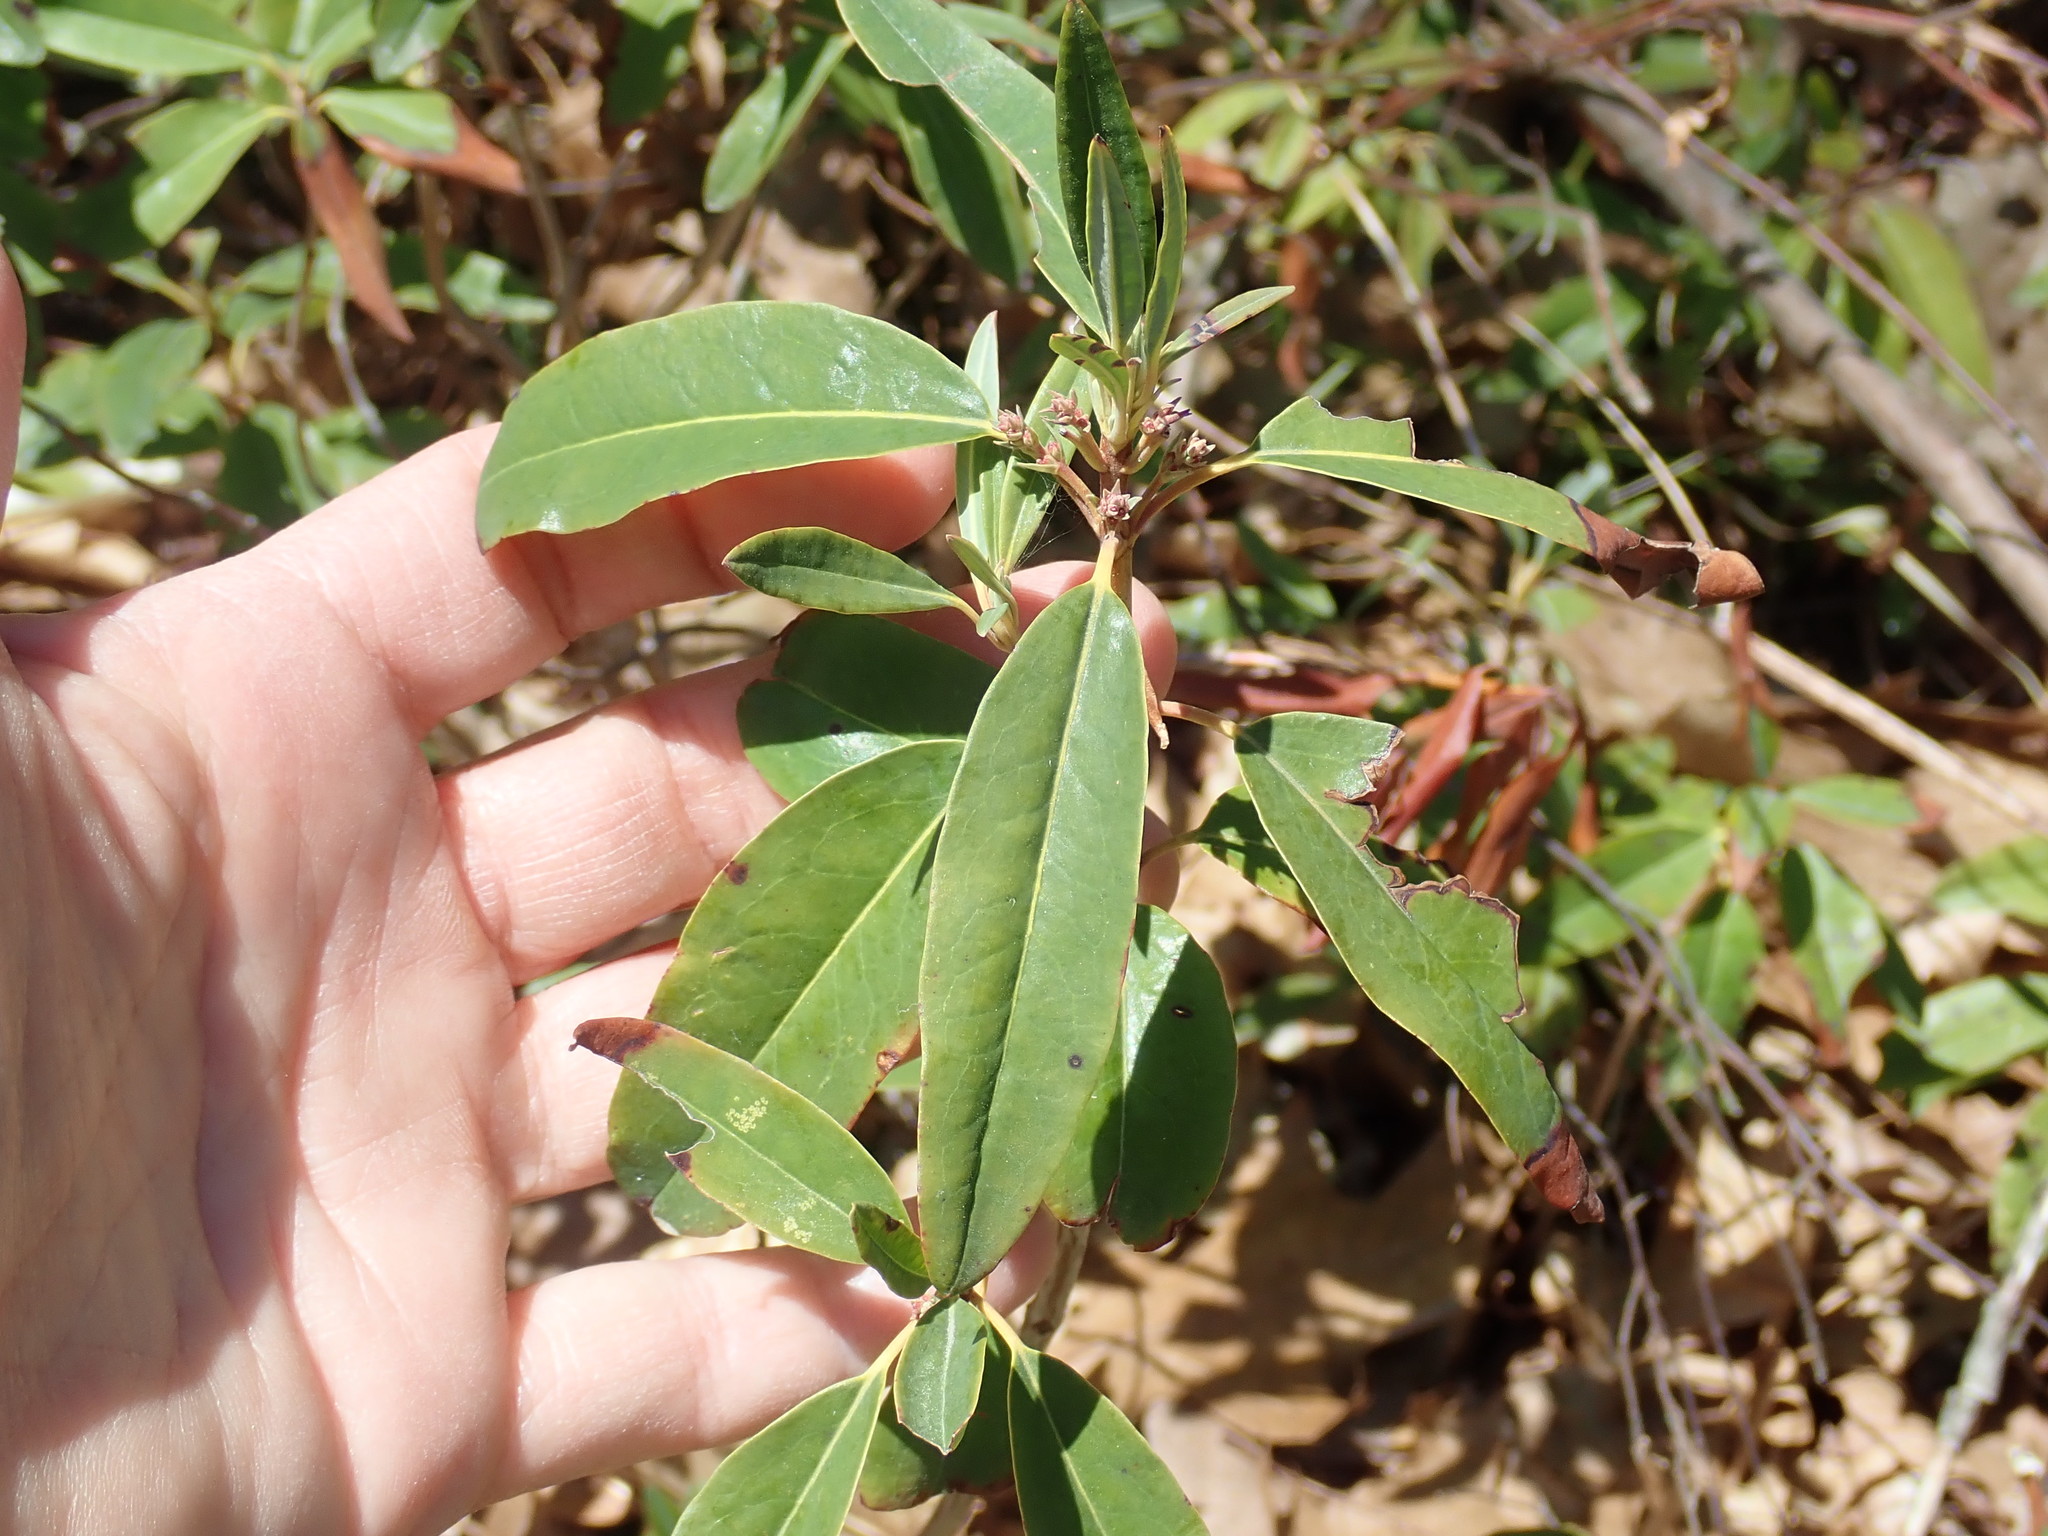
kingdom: Plantae
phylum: Tracheophyta
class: Magnoliopsida
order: Ericales
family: Ericaceae
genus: Kalmia
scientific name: Kalmia angustifolia
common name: Sheep-laurel
